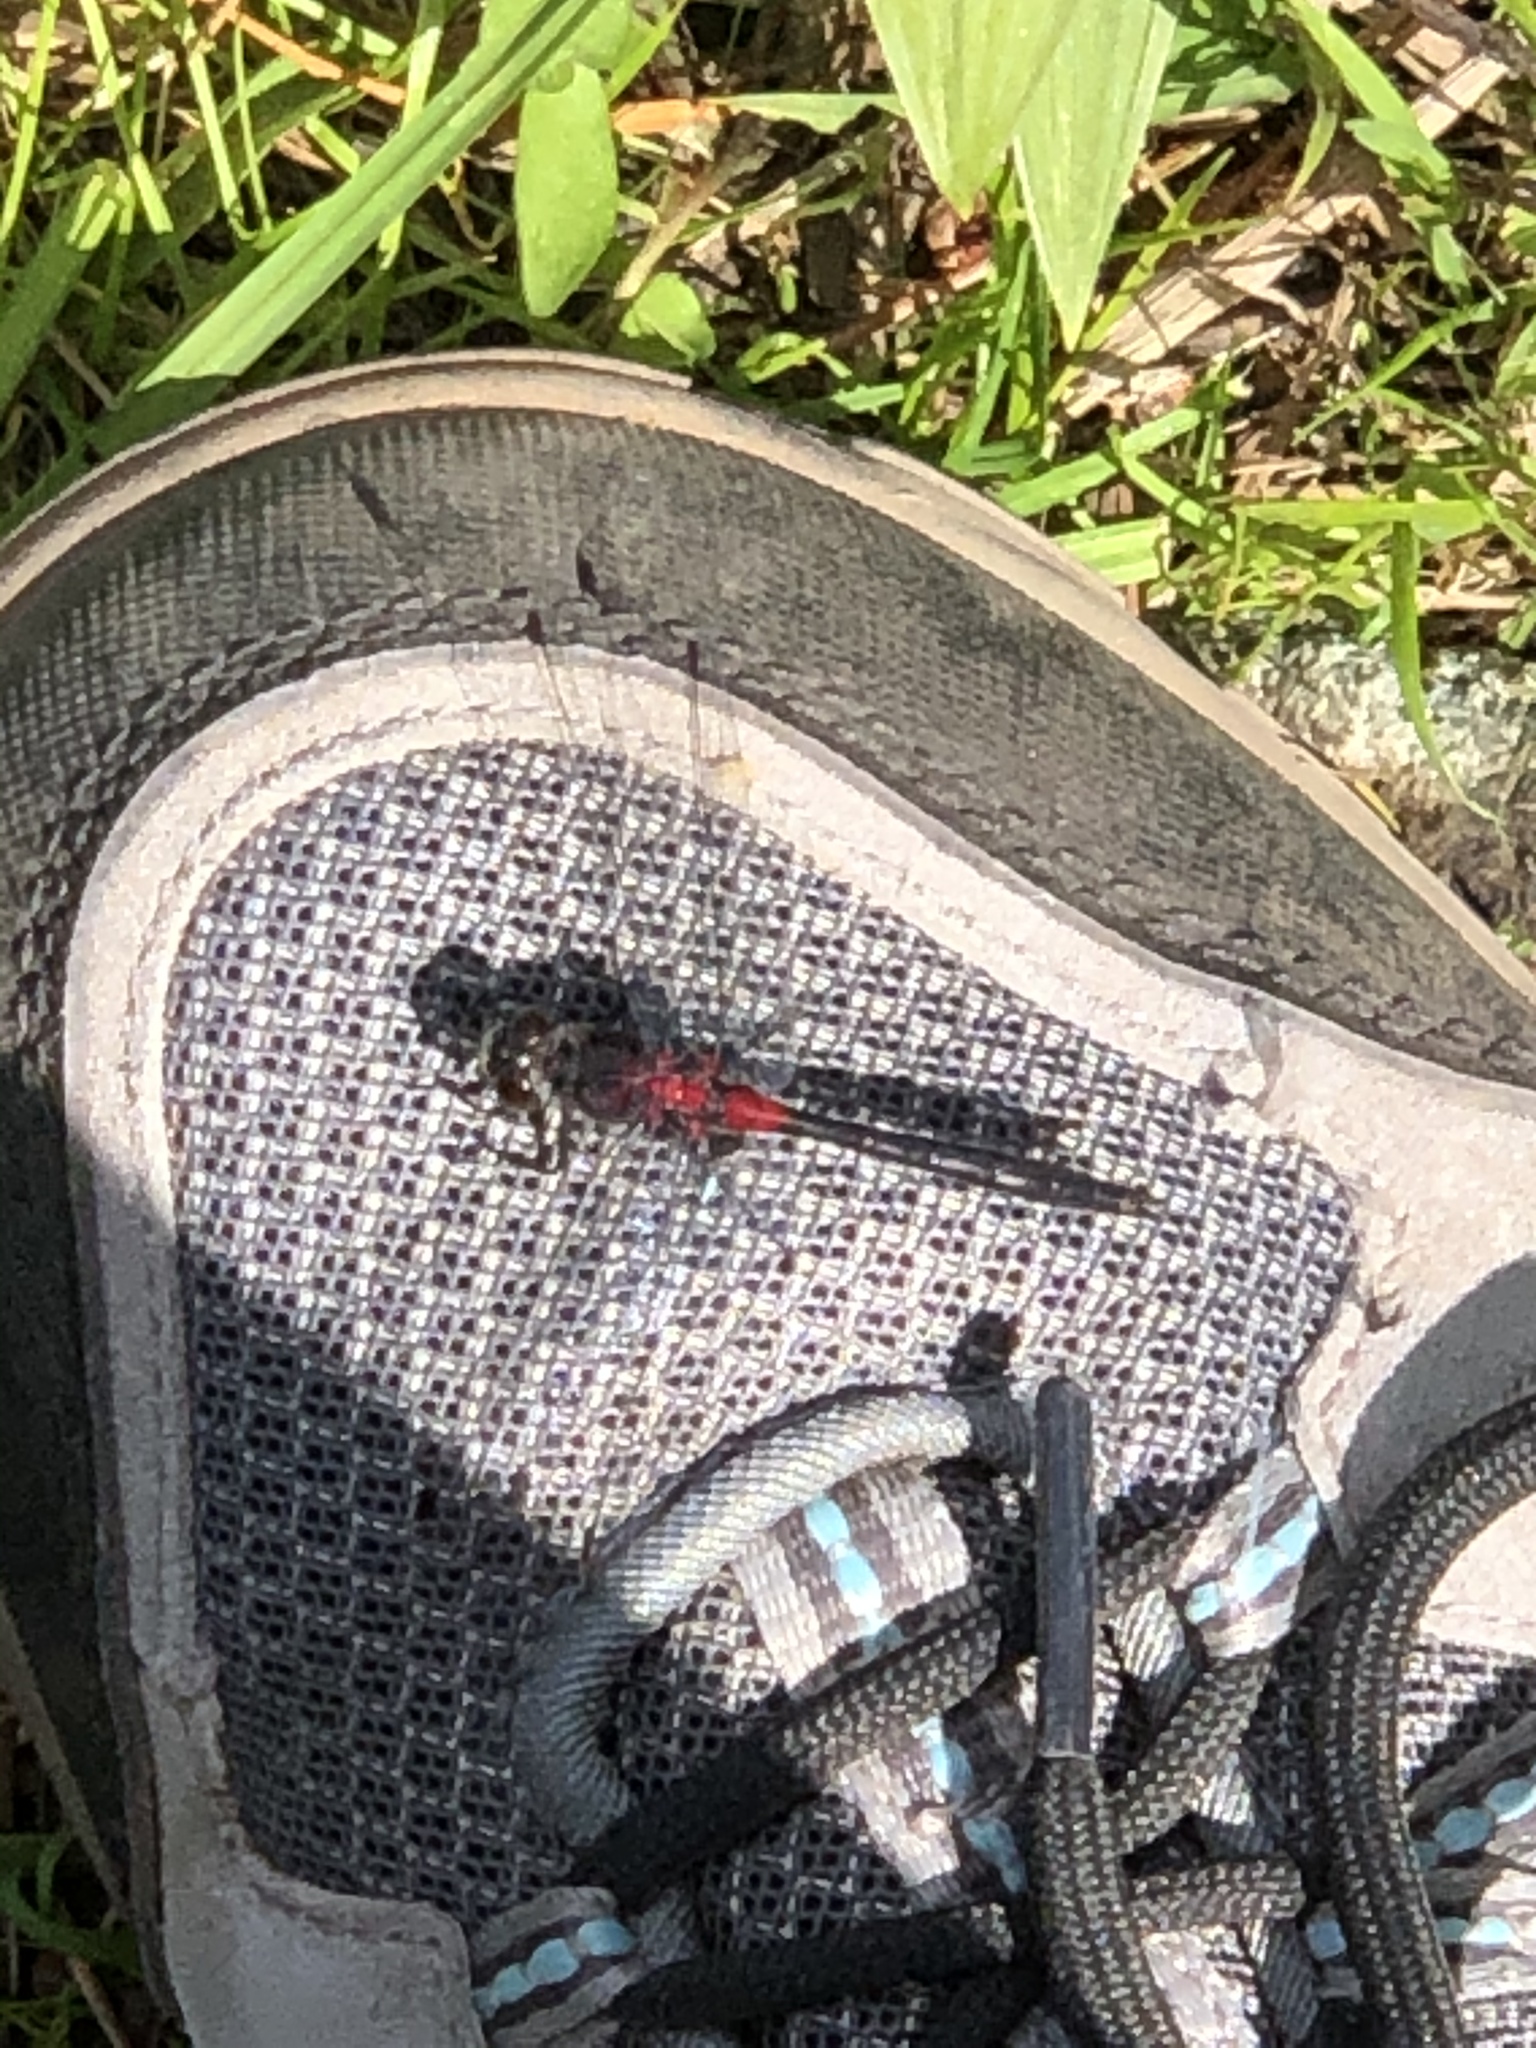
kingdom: Animalia
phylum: Arthropoda
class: Insecta
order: Odonata
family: Libellulidae
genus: Leucorrhinia
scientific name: Leucorrhinia glacialis
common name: Crimson-ringed whiteface
